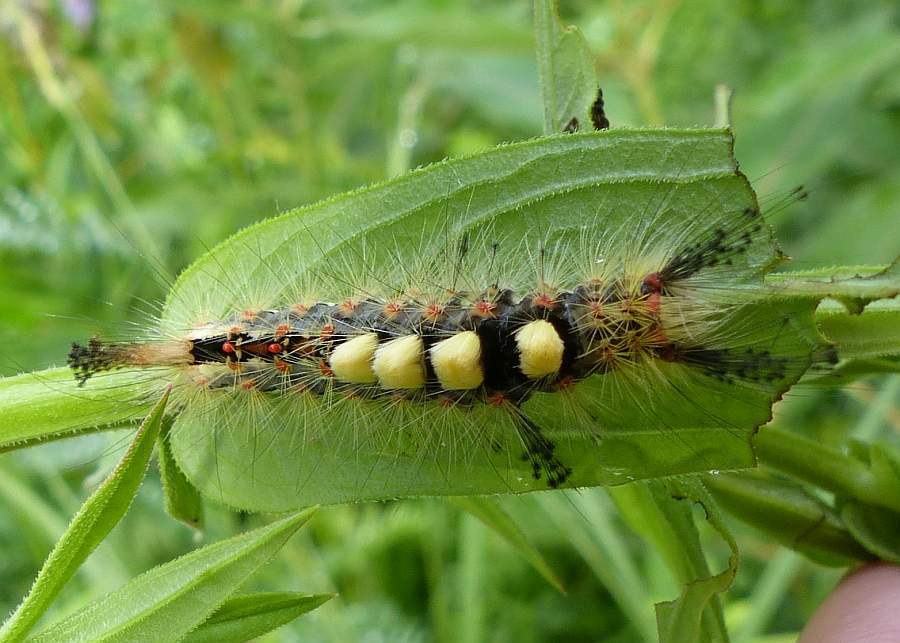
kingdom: Animalia
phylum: Arthropoda
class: Insecta
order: Lepidoptera
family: Erebidae
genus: Orgyia
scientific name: Orgyia antiqua
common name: Vapourer
